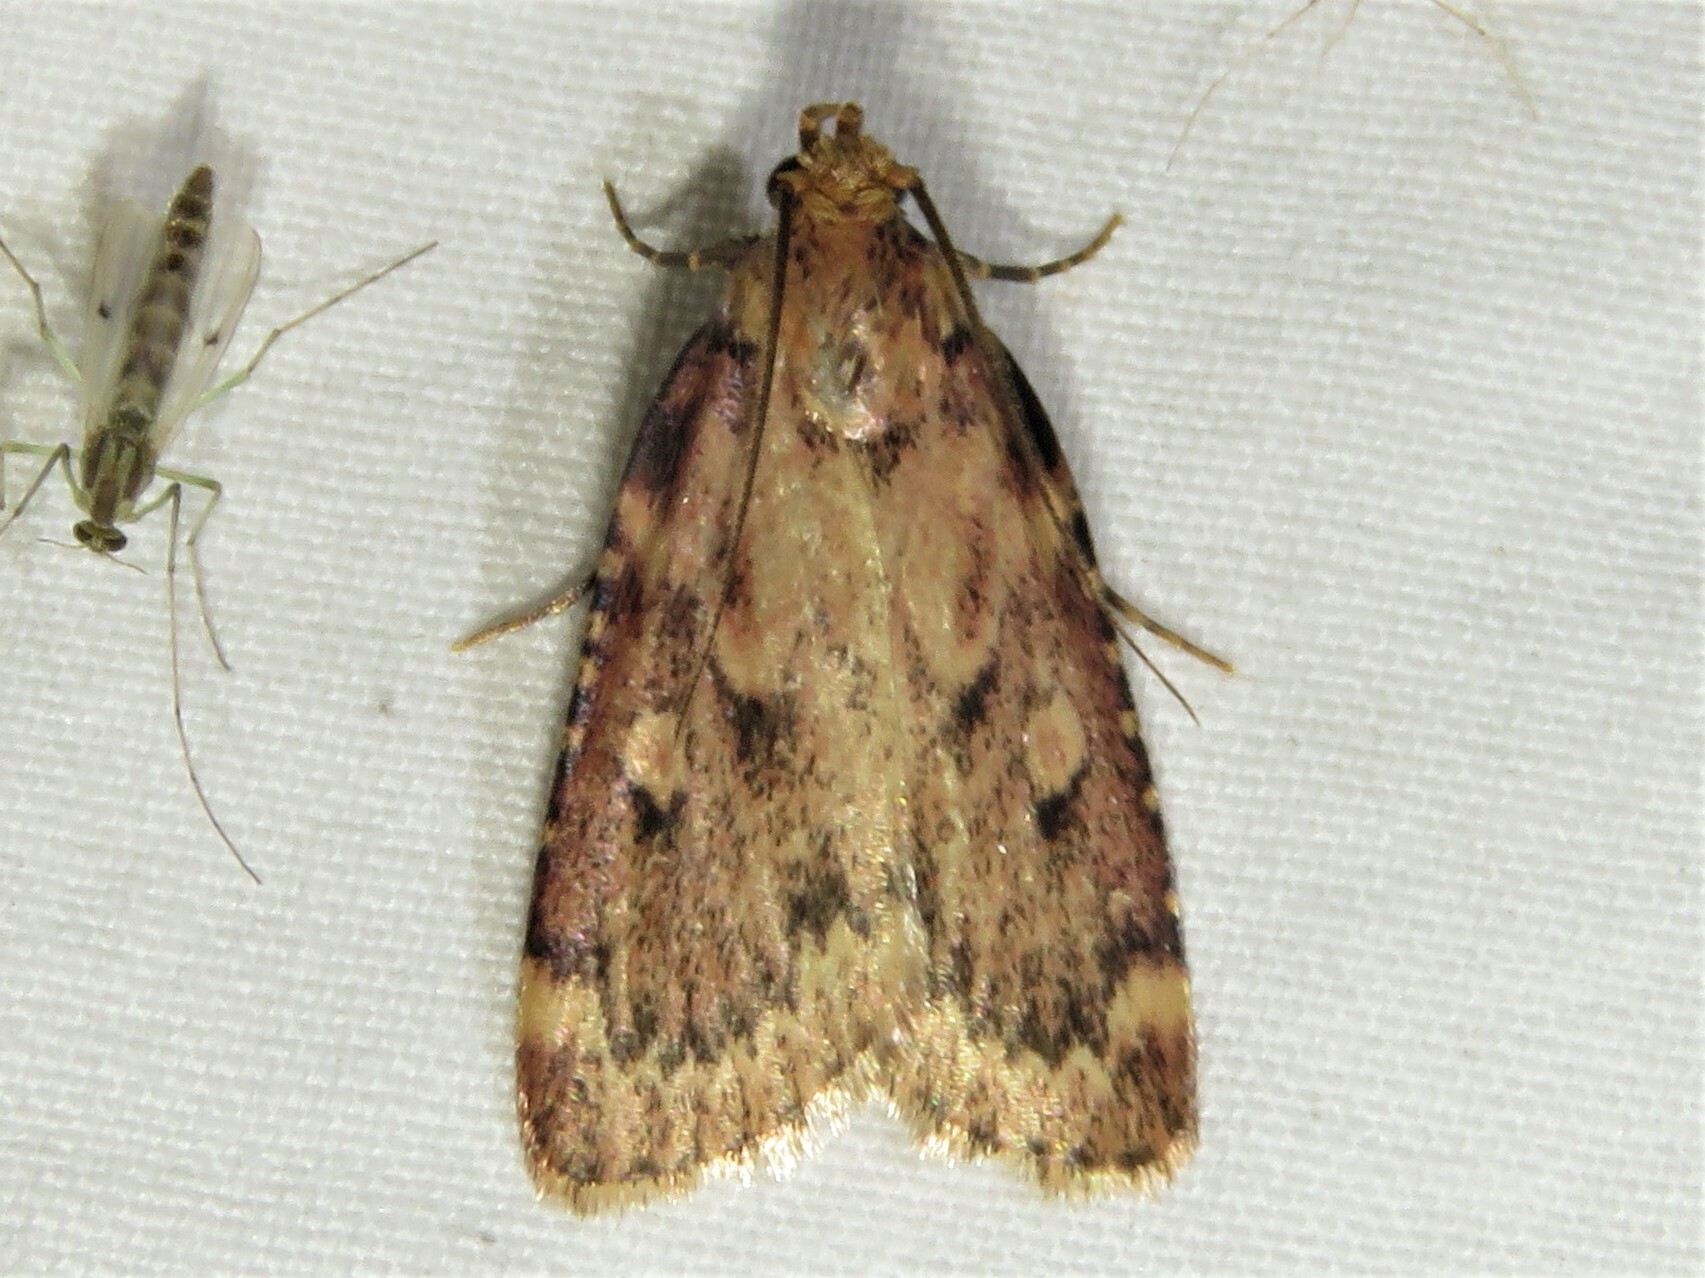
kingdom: Animalia
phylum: Arthropoda
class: Insecta
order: Lepidoptera
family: Pyralidae
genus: Aglossa
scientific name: Aglossa cuprina
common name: Grease moth
